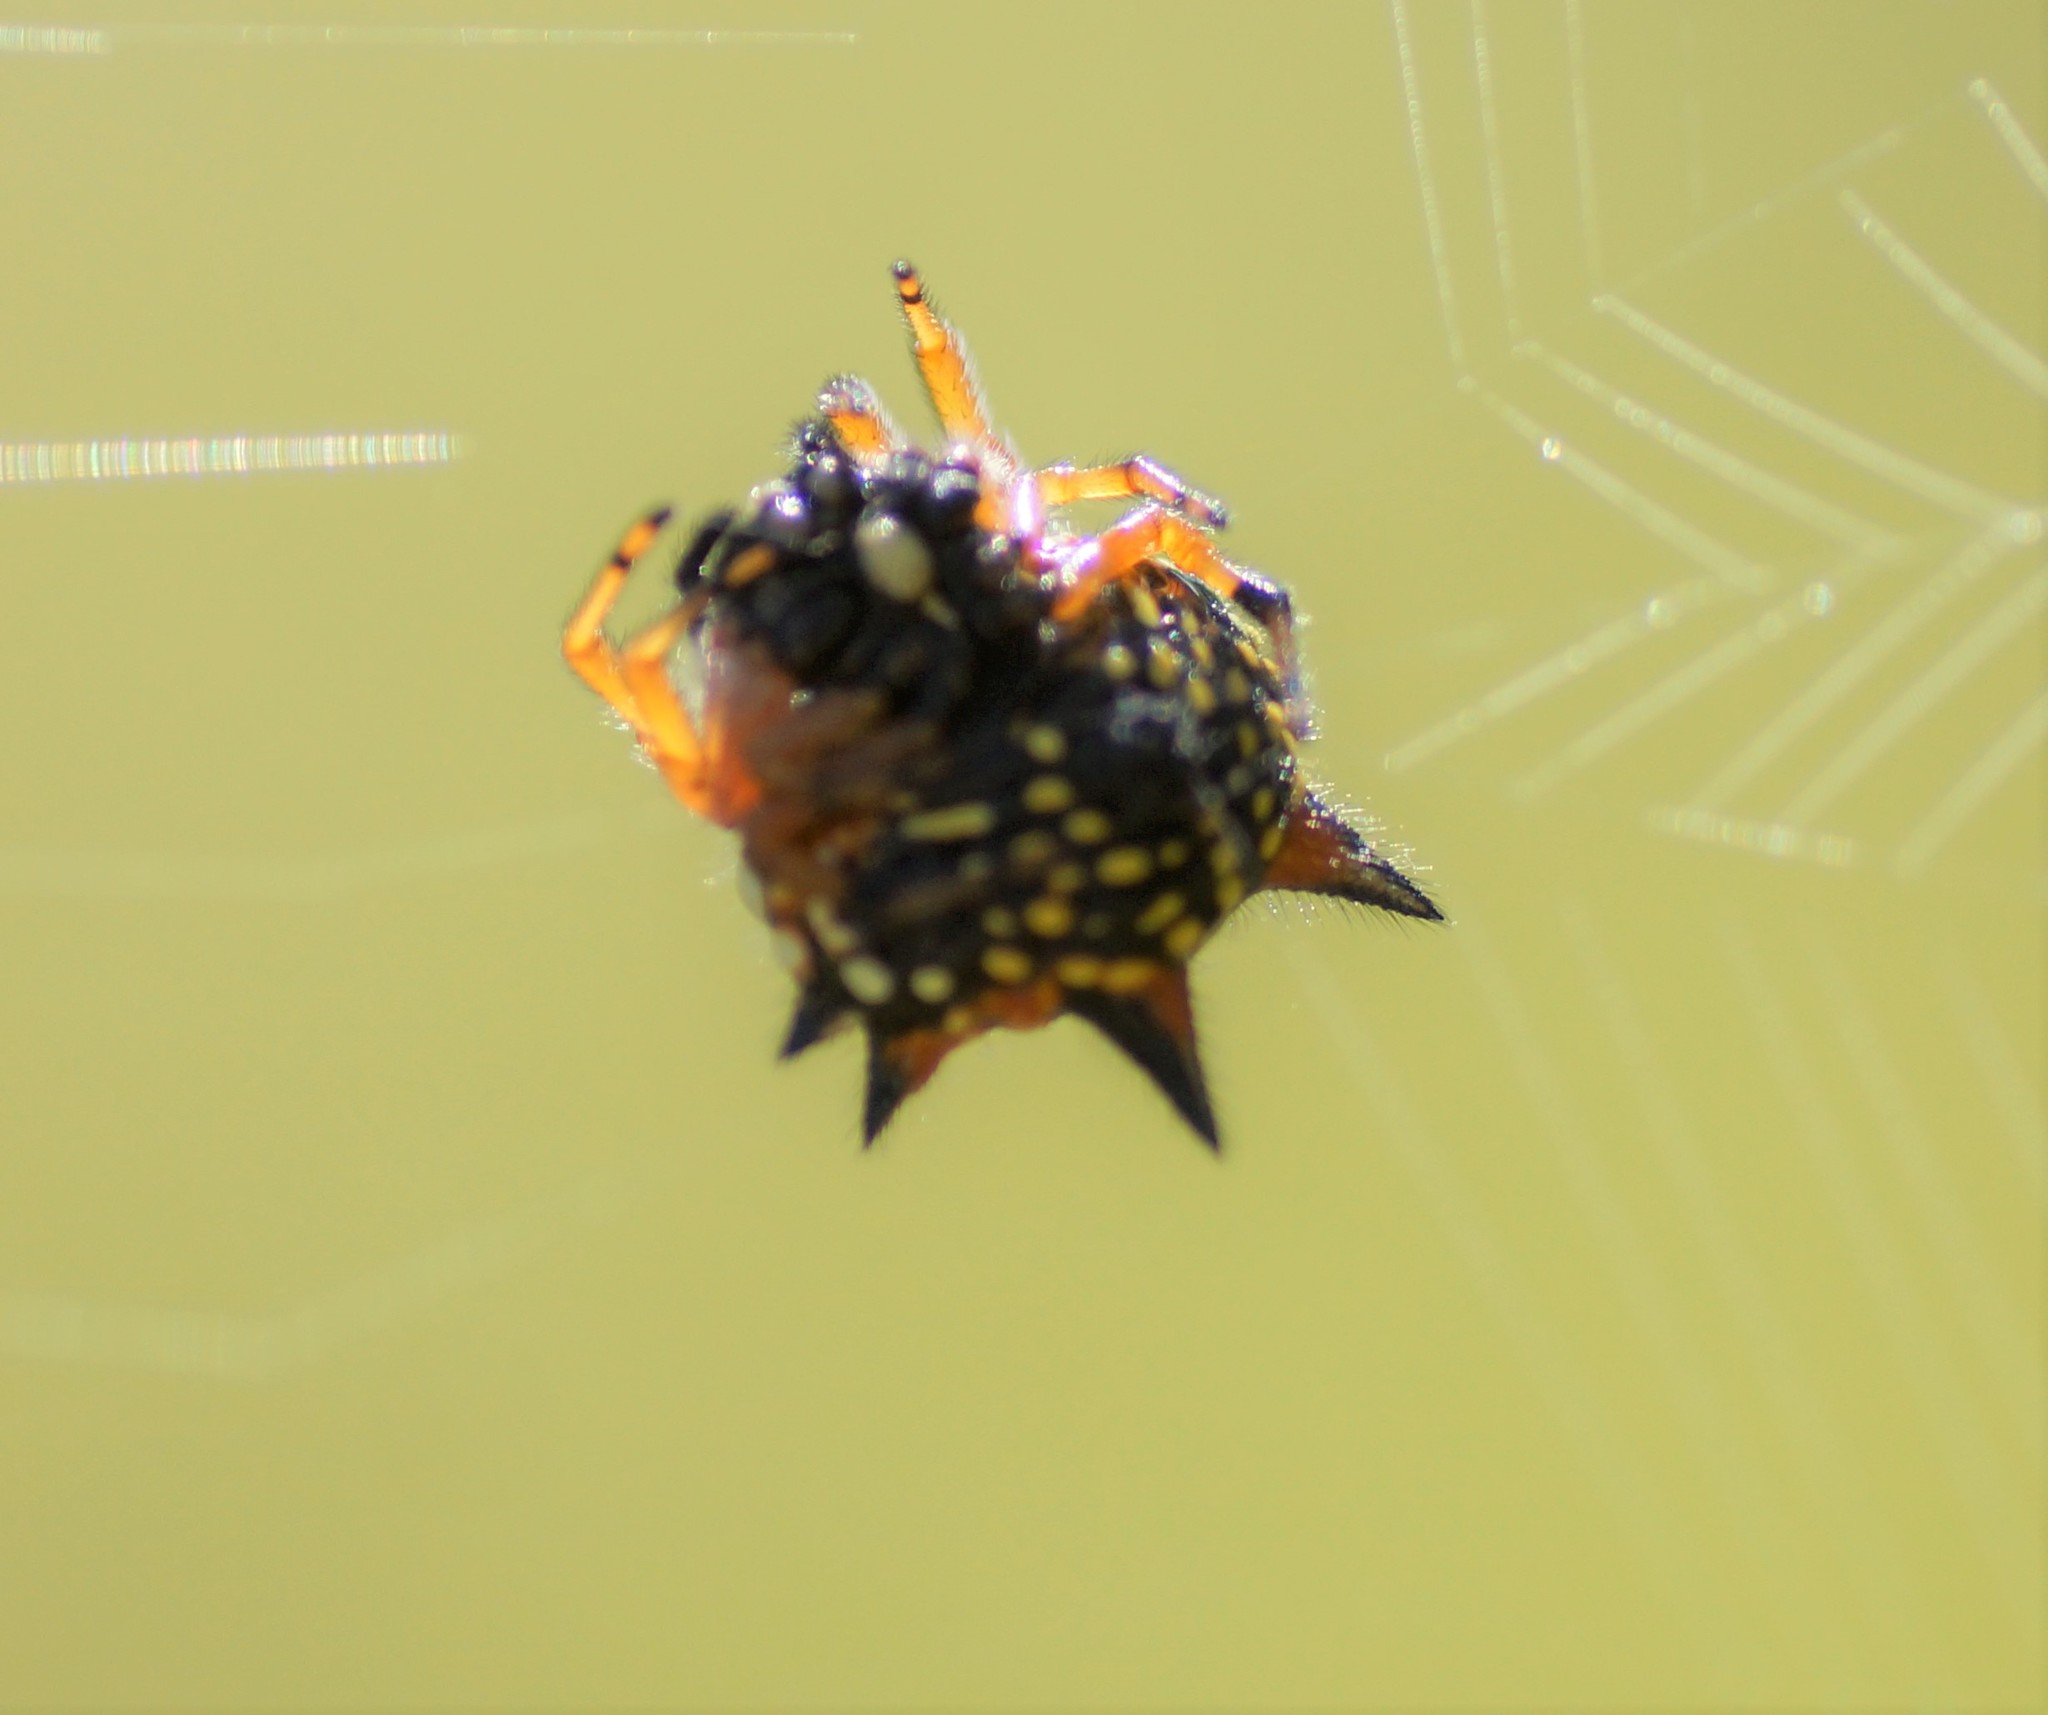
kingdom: Animalia
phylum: Arthropoda
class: Arachnida
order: Araneae
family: Araneidae
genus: Austracantha
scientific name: Austracantha minax
